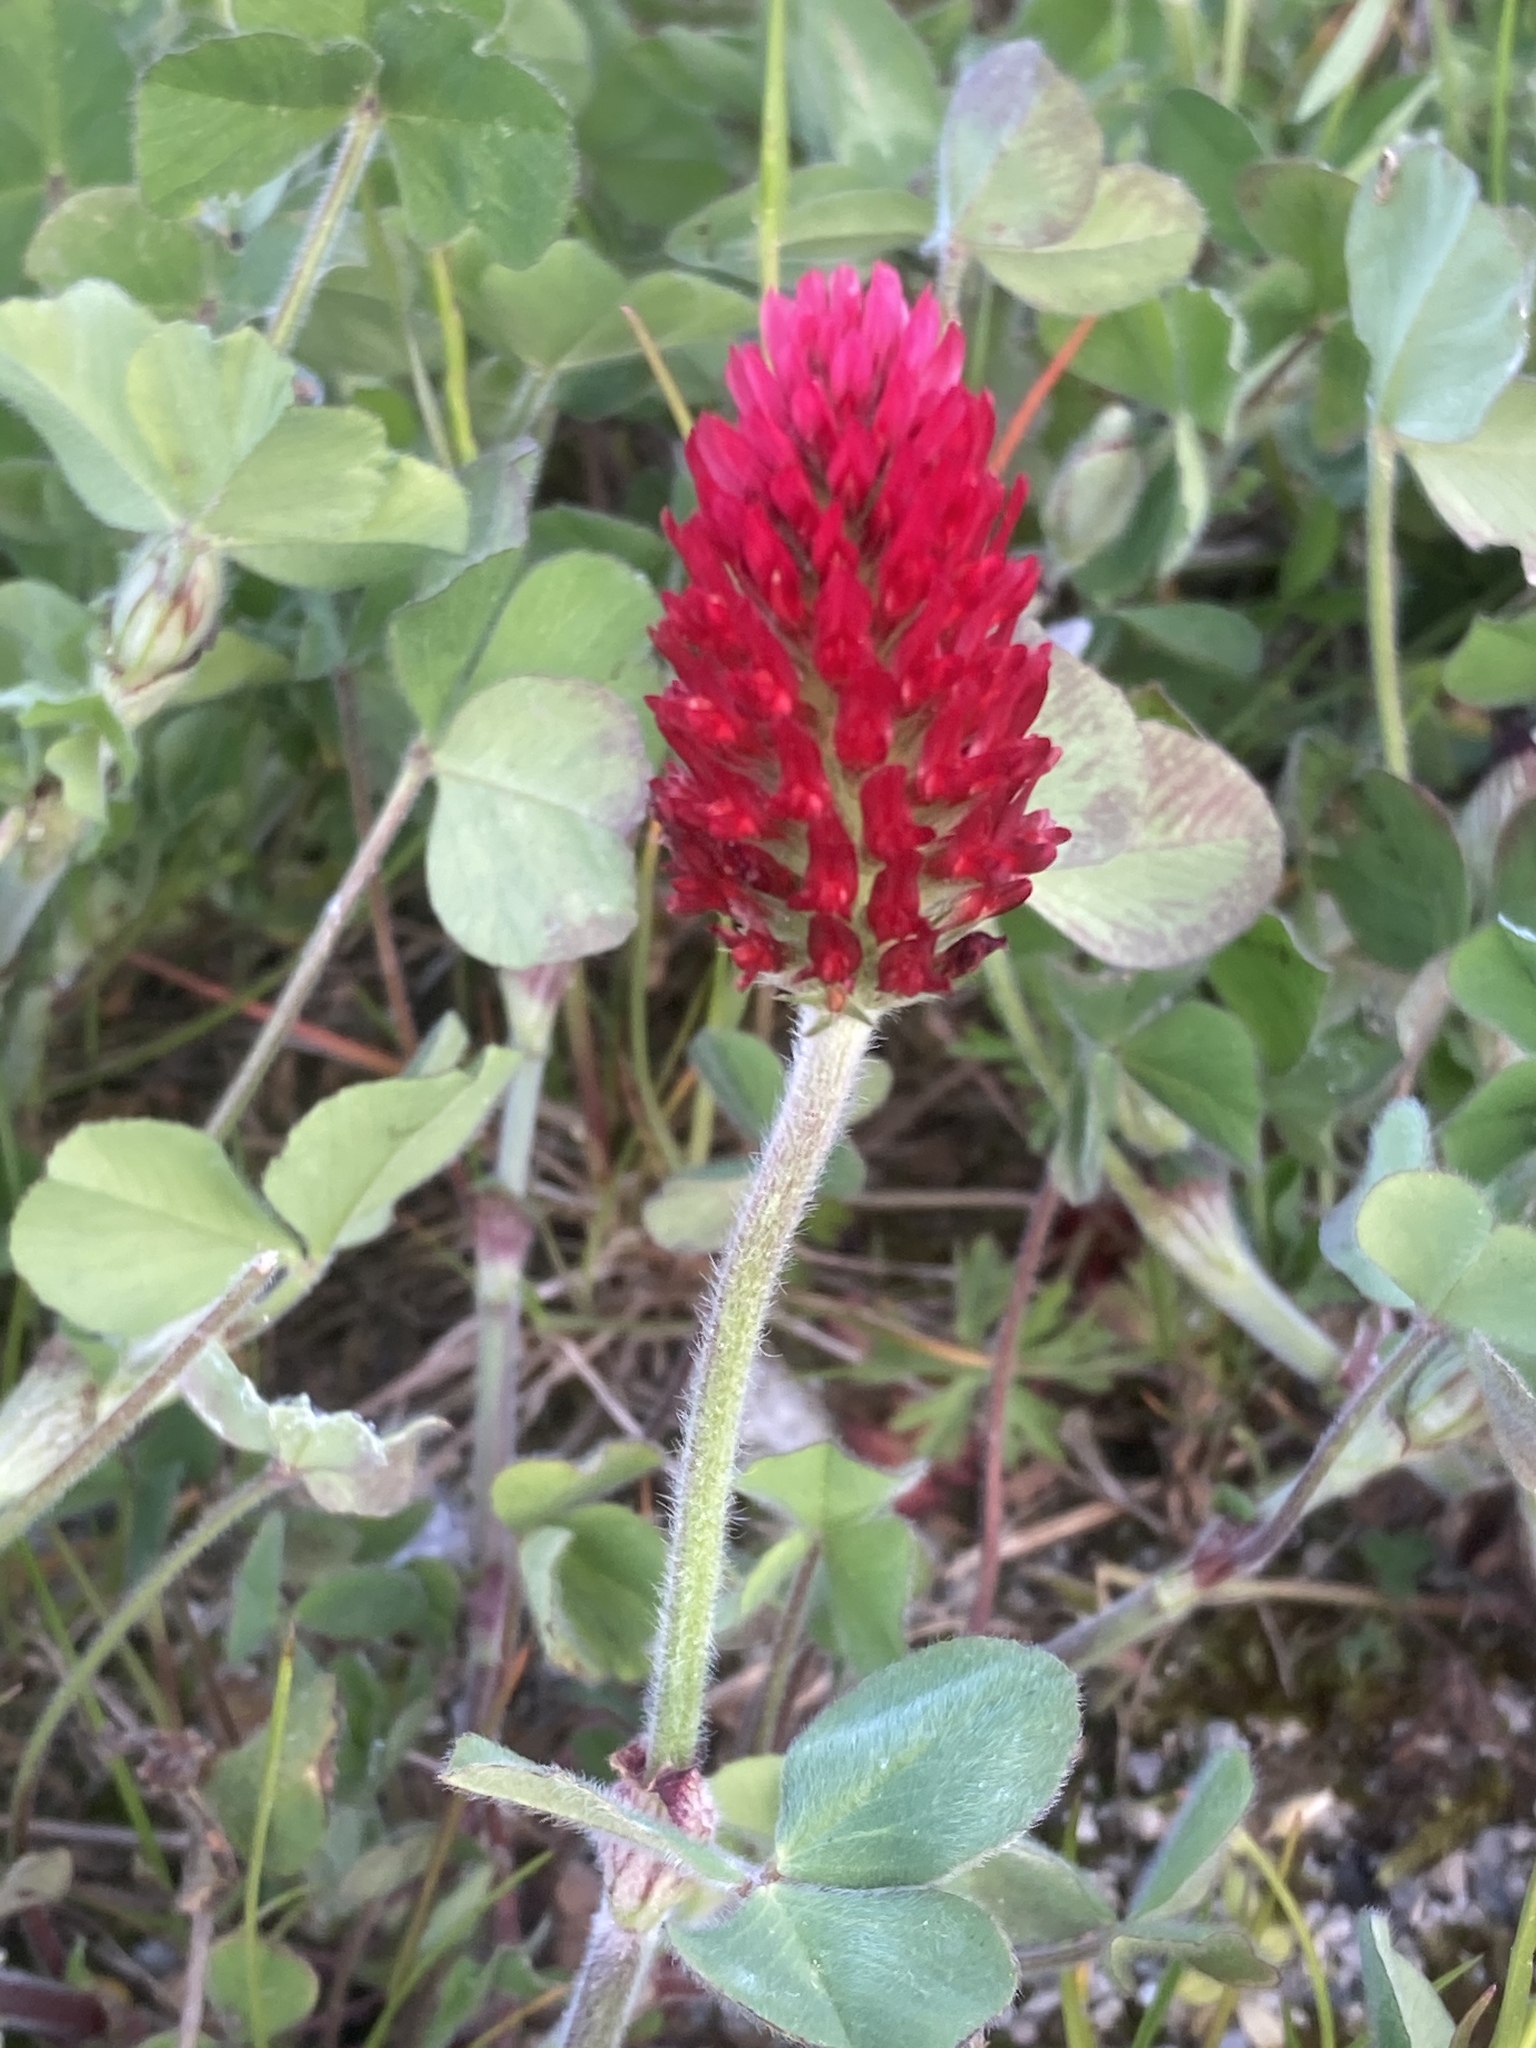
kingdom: Plantae
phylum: Tracheophyta
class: Magnoliopsida
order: Fabales
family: Fabaceae
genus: Trifolium
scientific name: Trifolium incarnatum
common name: Crimson clover
